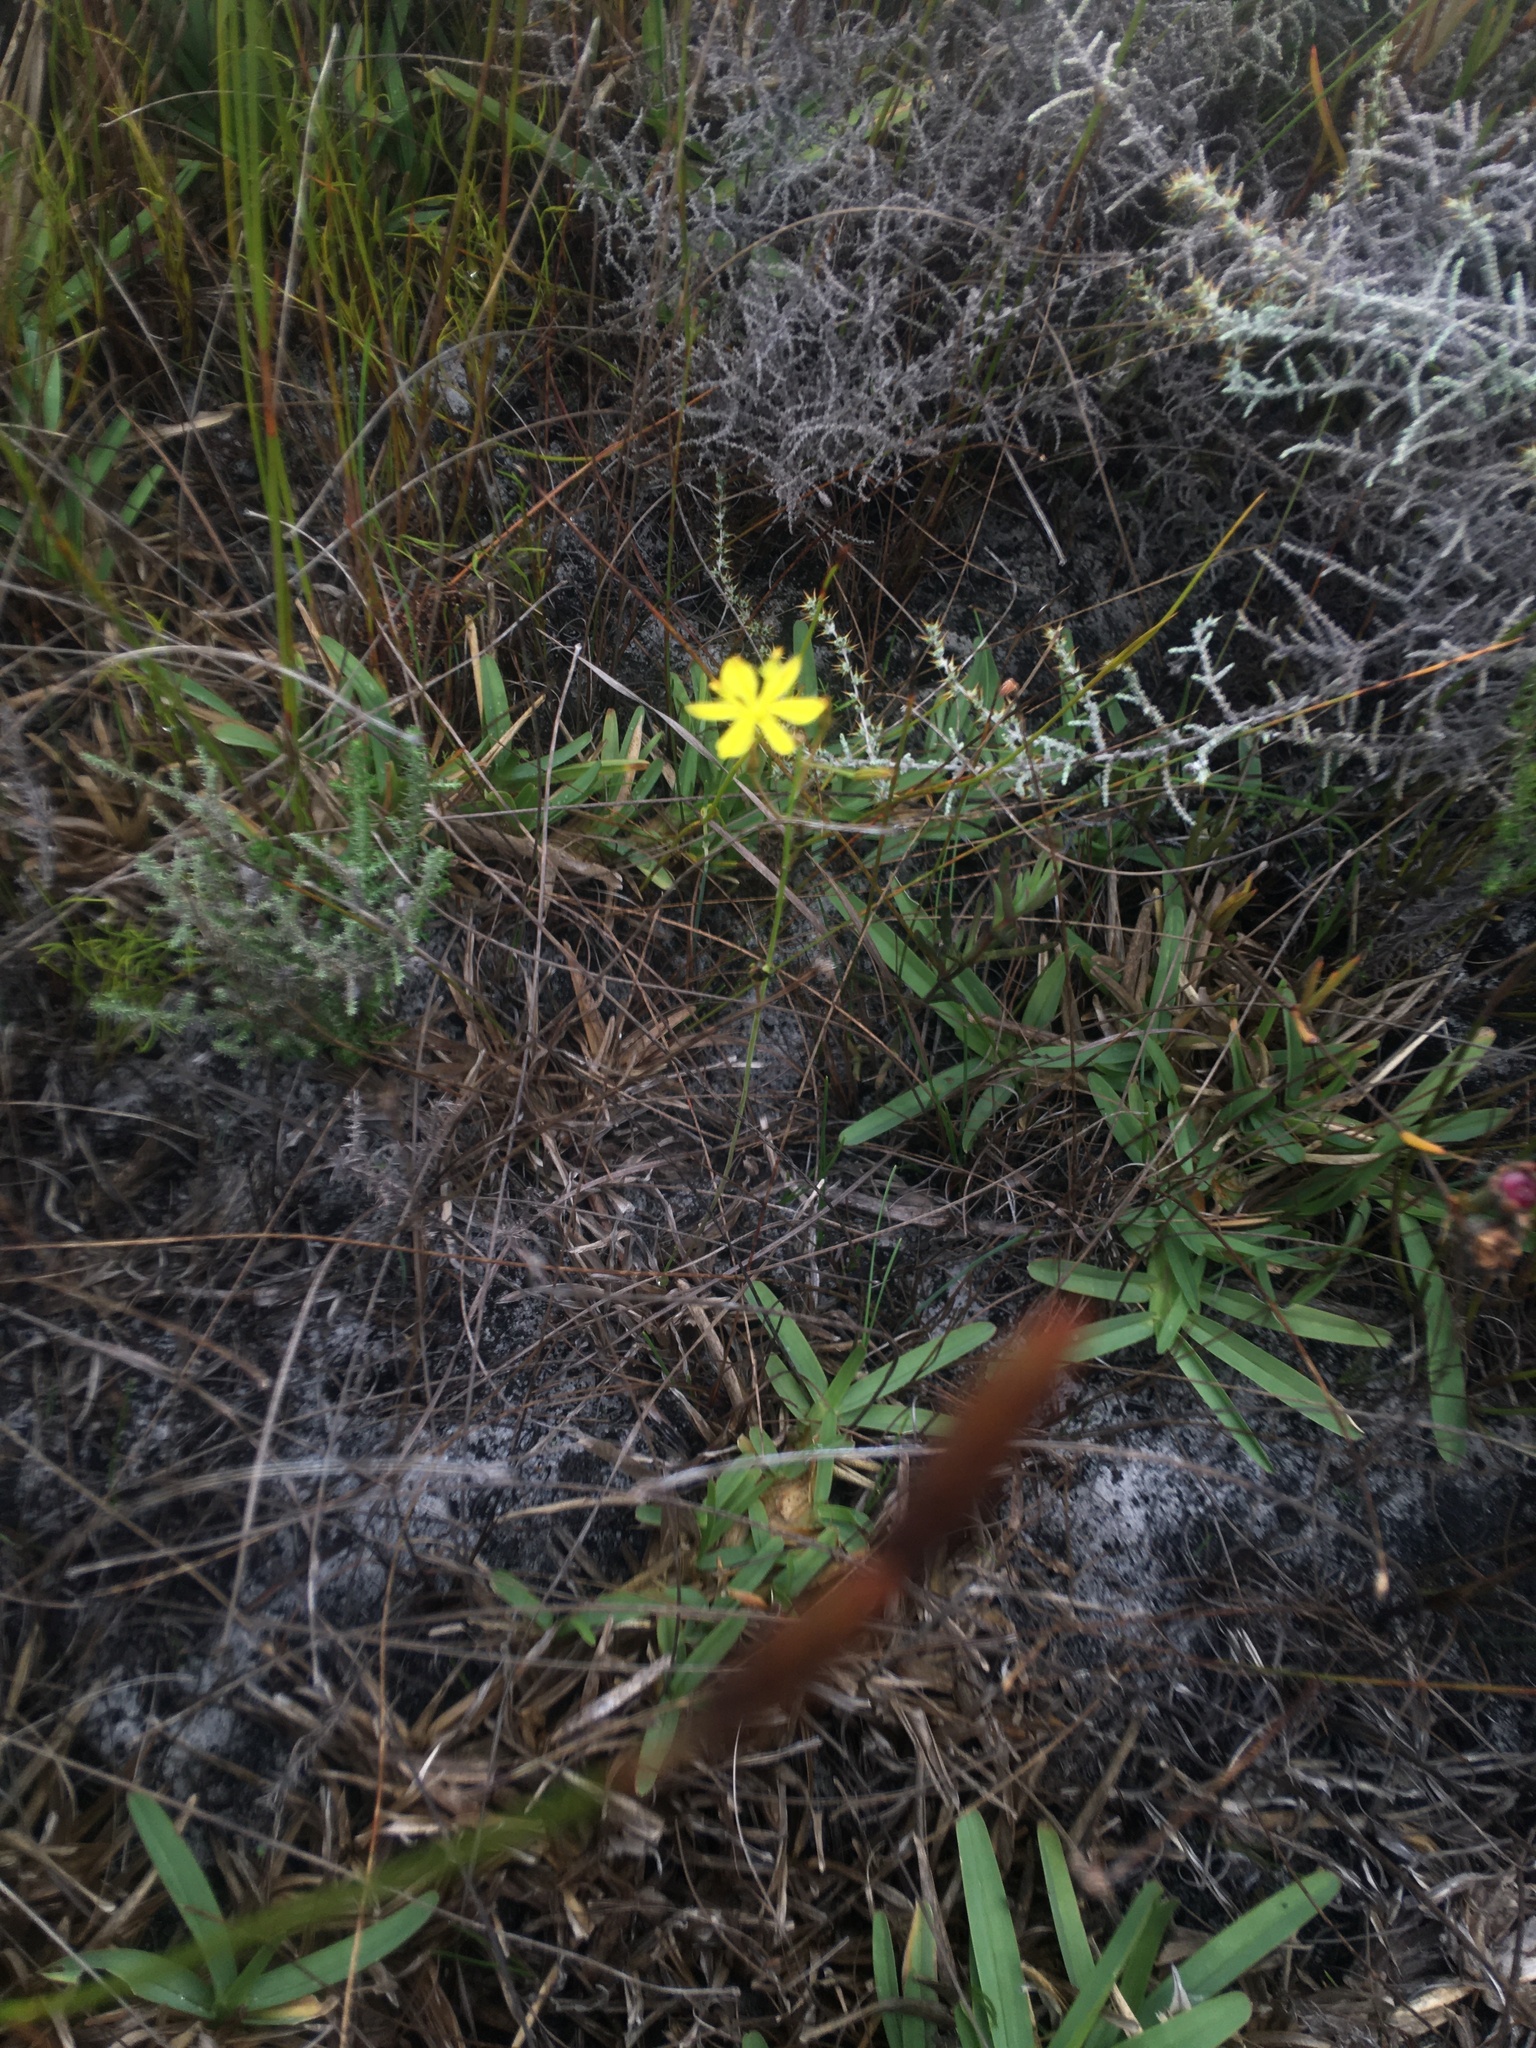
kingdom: Plantae
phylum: Tracheophyta
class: Liliopsida
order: Asparagales
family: Asphodelaceae
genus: Bulbine
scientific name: Bulbine favosa
